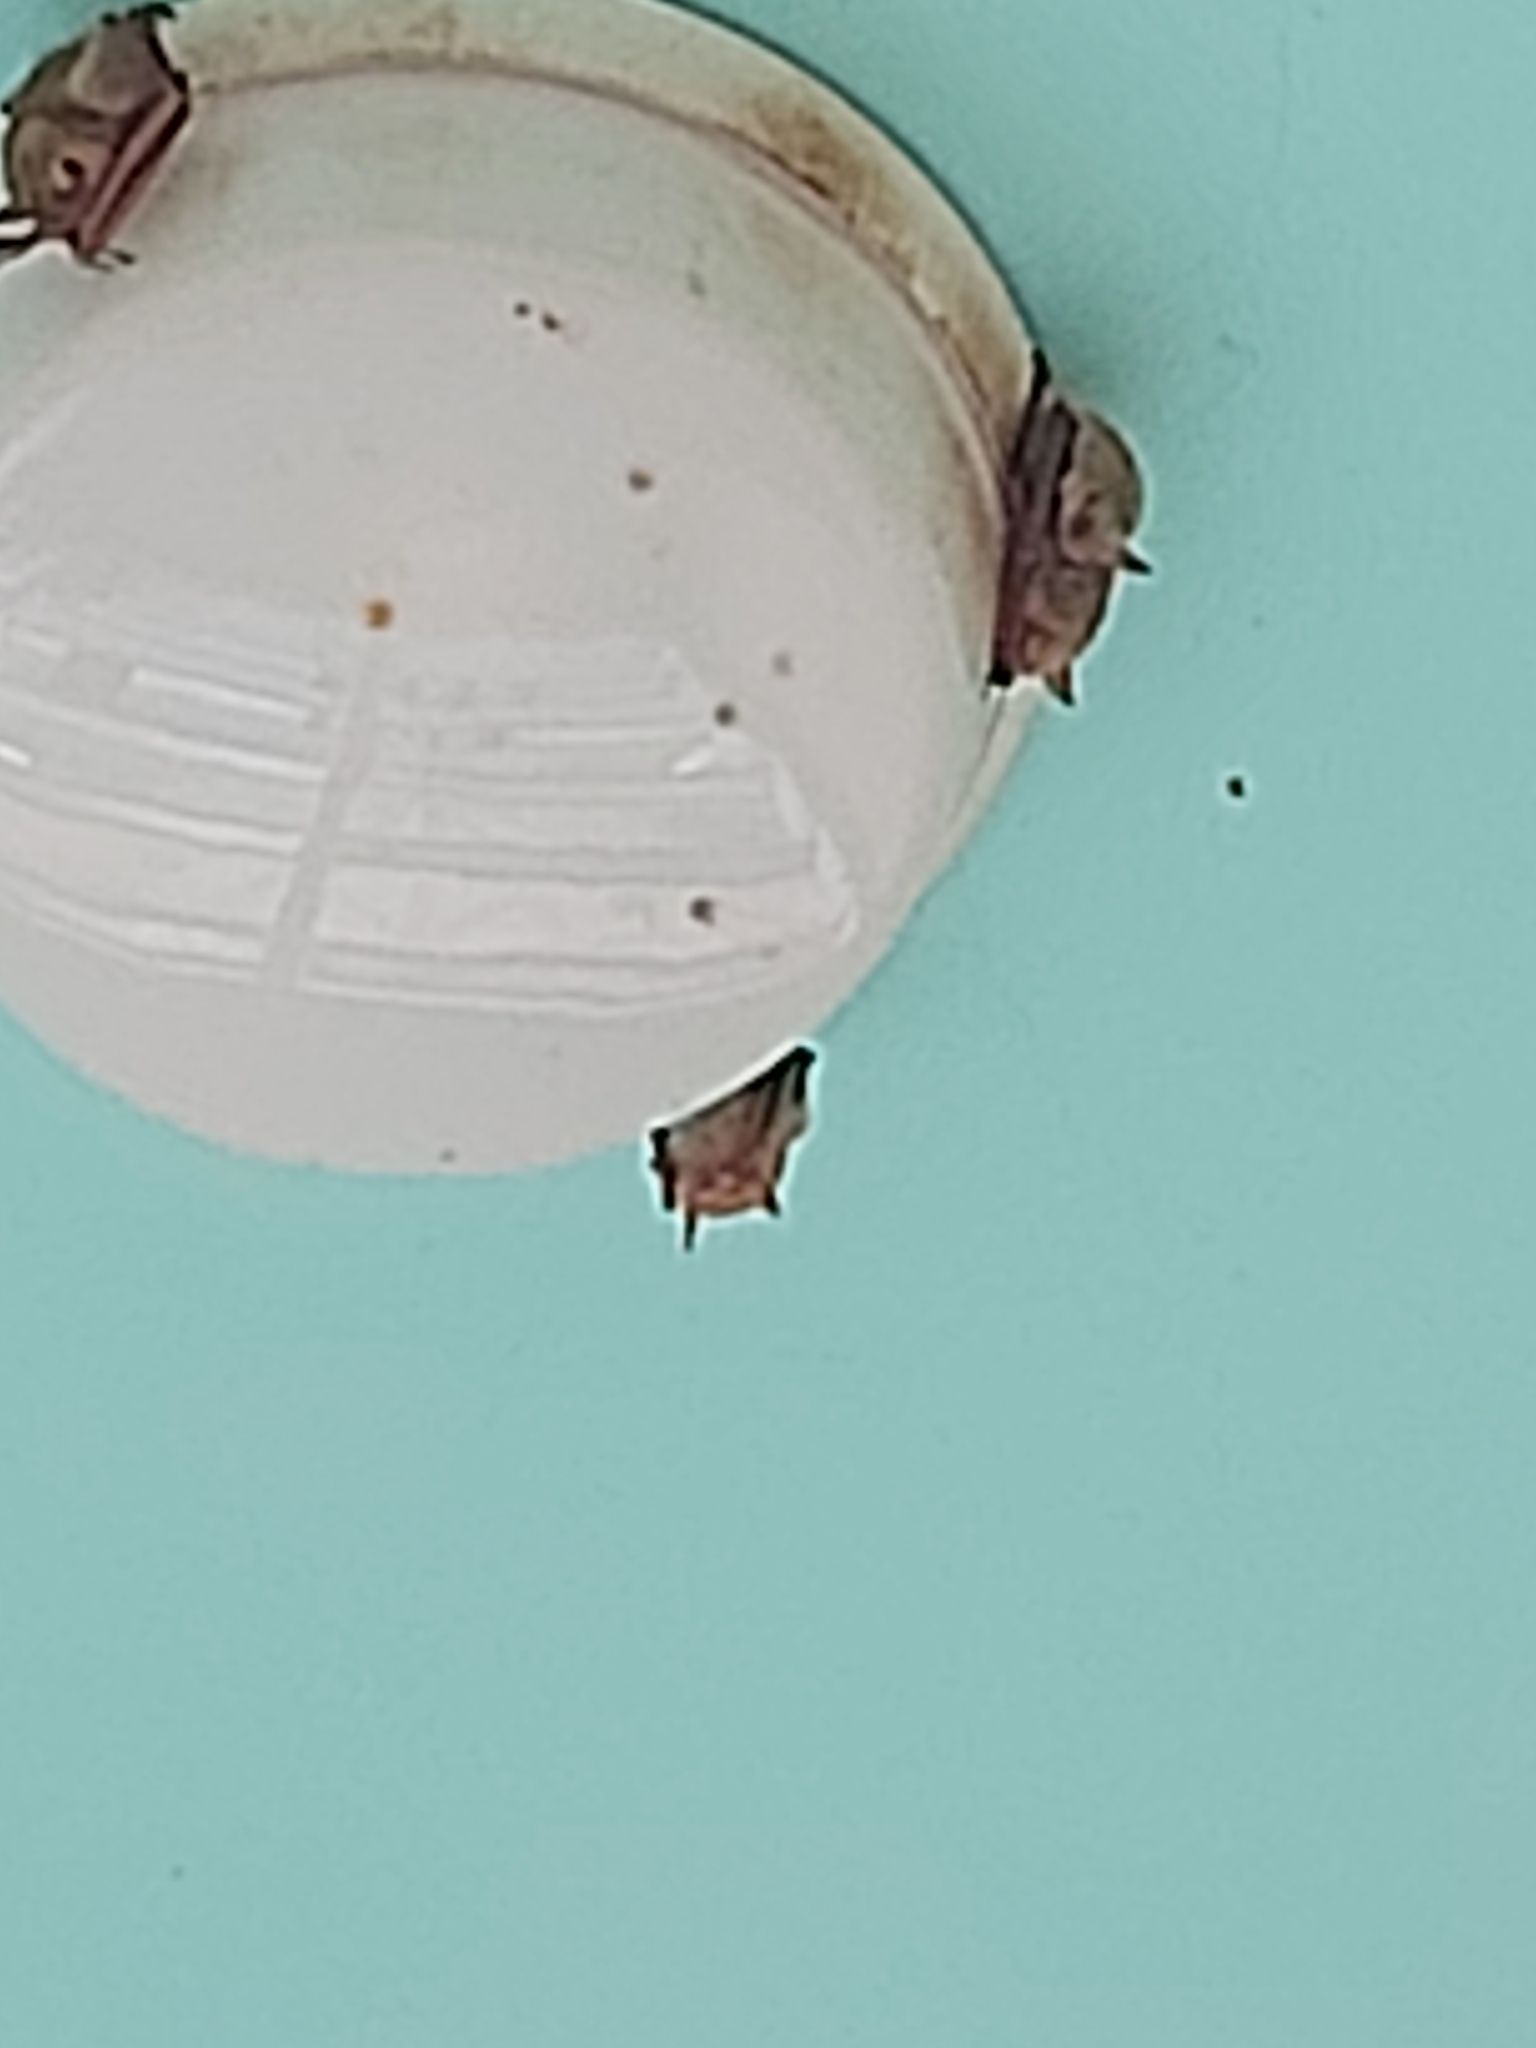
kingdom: Animalia
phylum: Chordata
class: Mammalia
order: Chiroptera
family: Vespertilionidae
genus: Myotis
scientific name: Myotis formosus
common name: Hodgson's myotis
